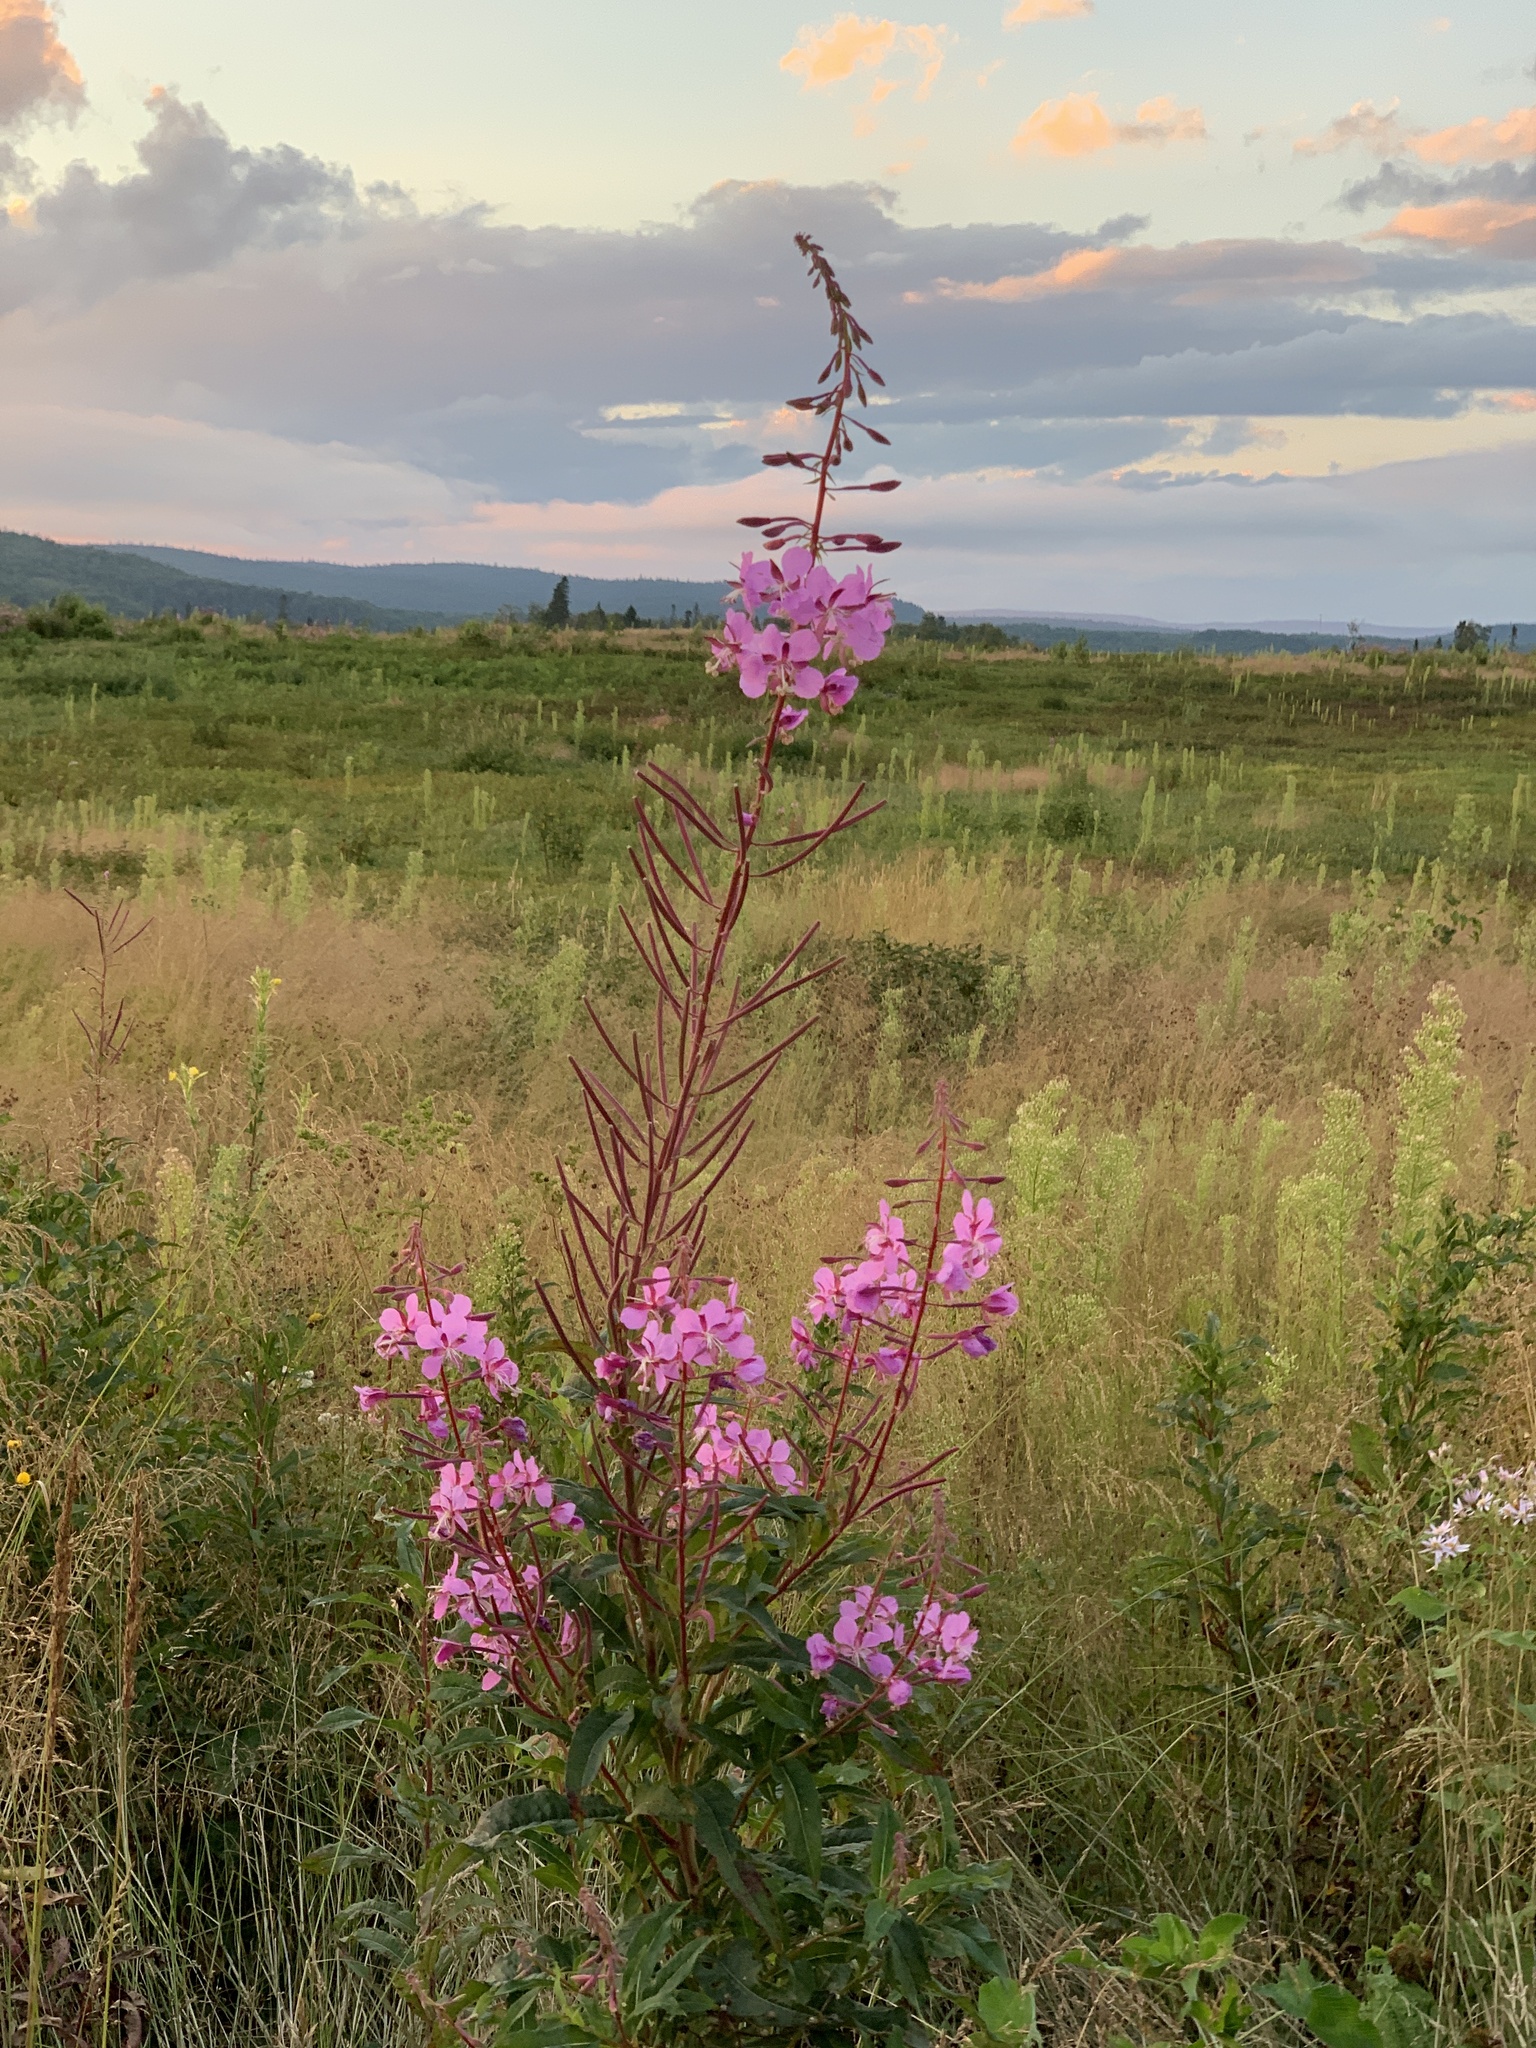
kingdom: Plantae
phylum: Tracheophyta
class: Magnoliopsida
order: Myrtales
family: Onagraceae
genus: Chamaenerion
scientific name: Chamaenerion angustifolium
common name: Fireweed
